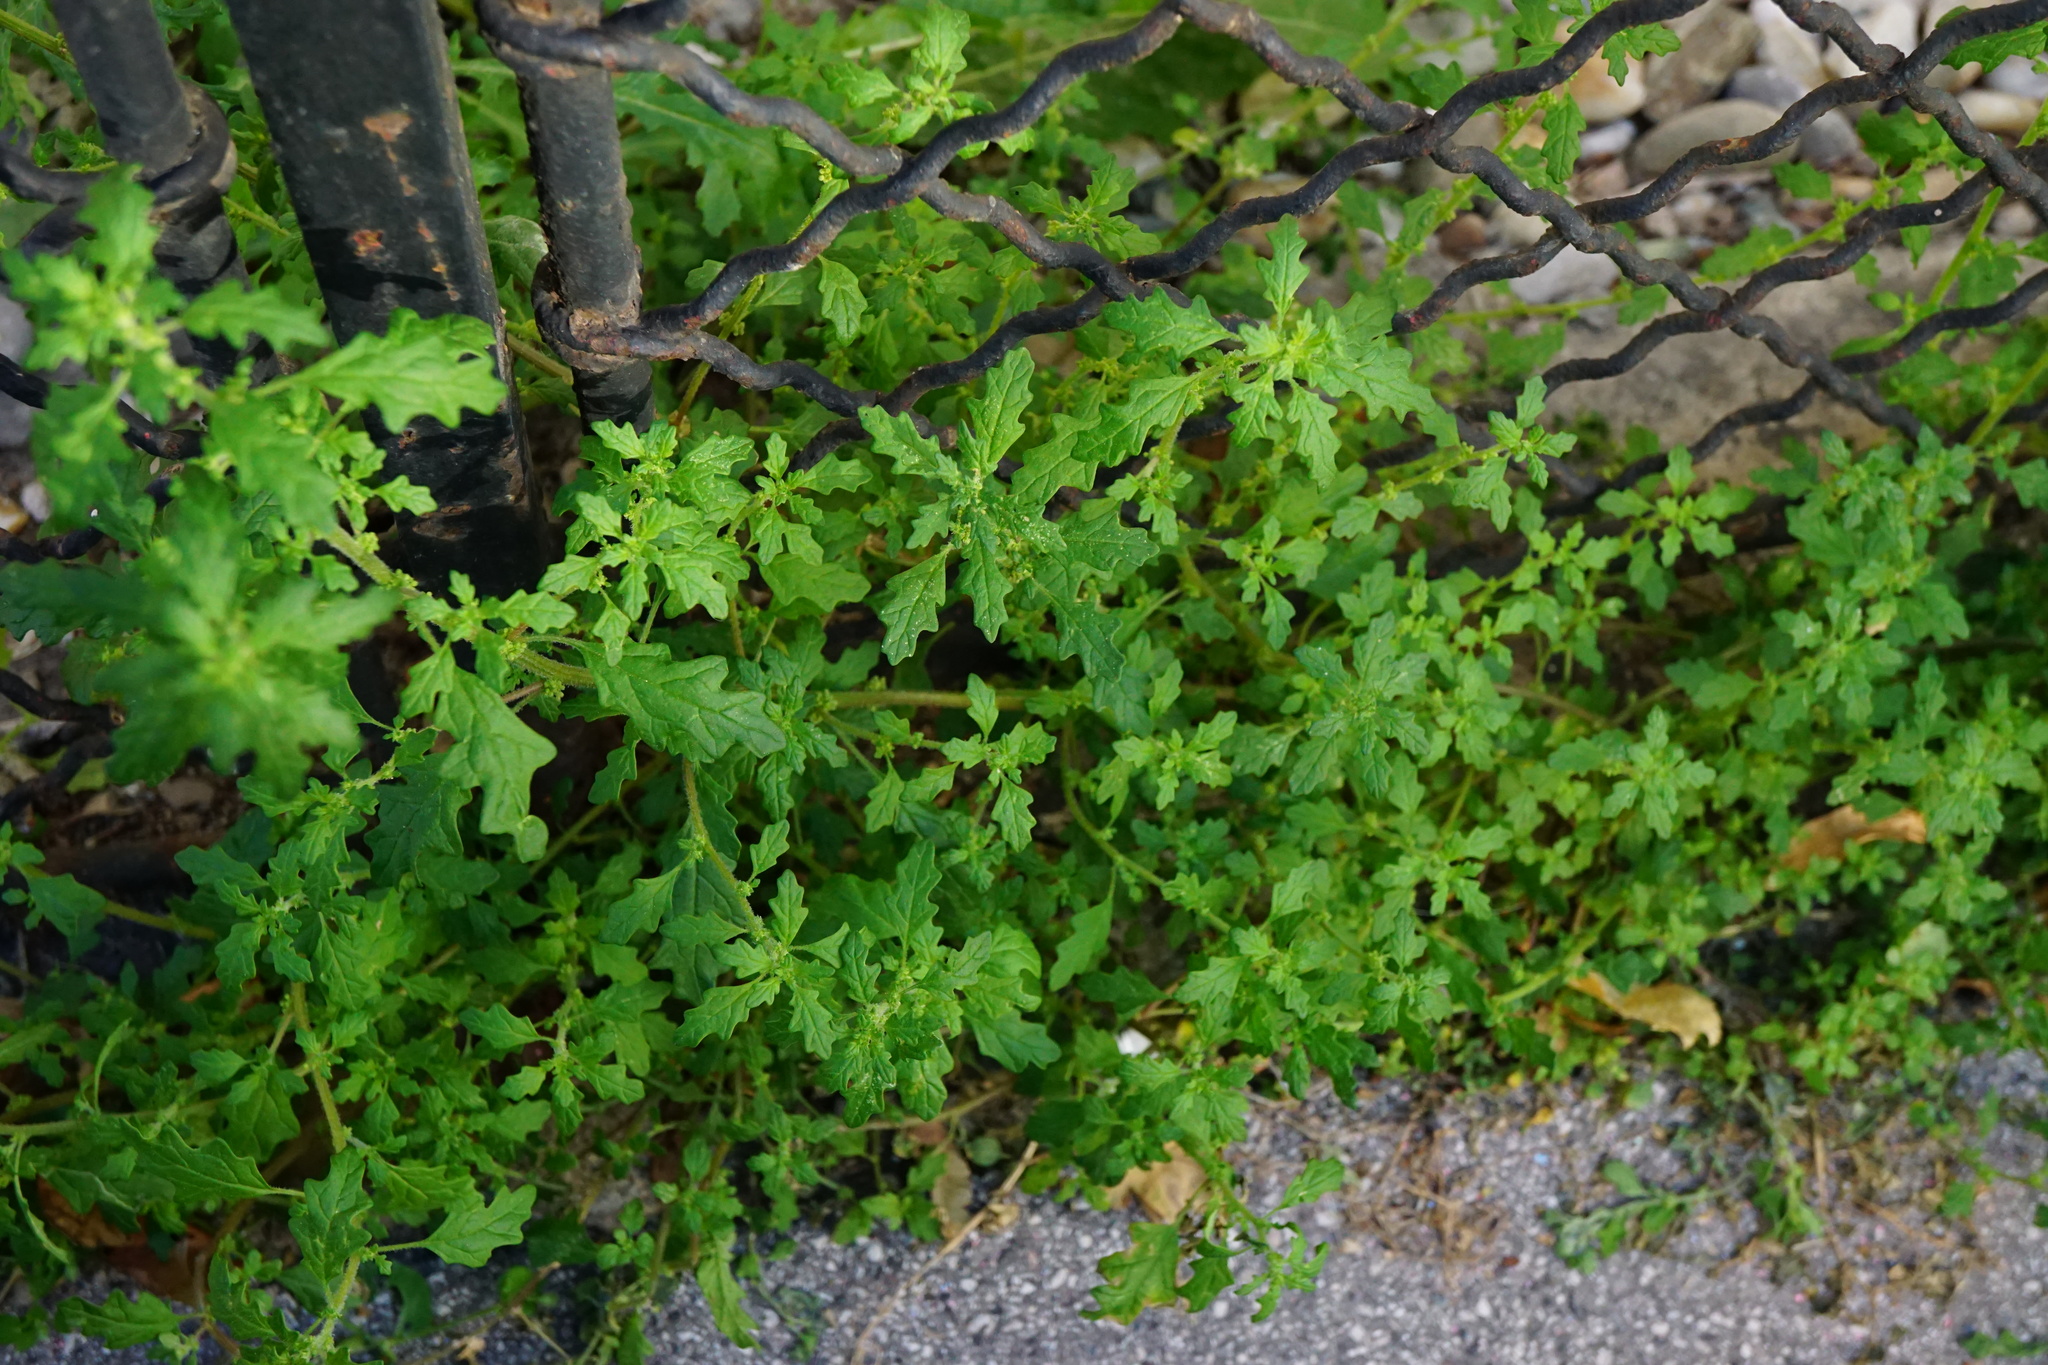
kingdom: Plantae
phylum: Tracheophyta
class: Magnoliopsida
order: Caryophyllales
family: Amaranthaceae
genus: Dysphania
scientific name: Dysphania pumilio
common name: Clammy goosefoot
